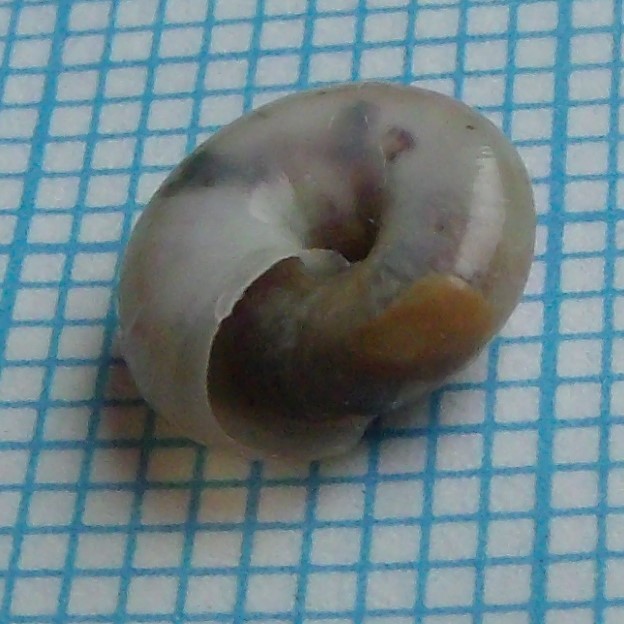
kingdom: Animalia
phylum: Mollusca
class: Gastropoda
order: Stylommatophora
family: Oxychilidae
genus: Oxychilus
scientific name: Oxychilus cellarius
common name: Cellar glass-snail
